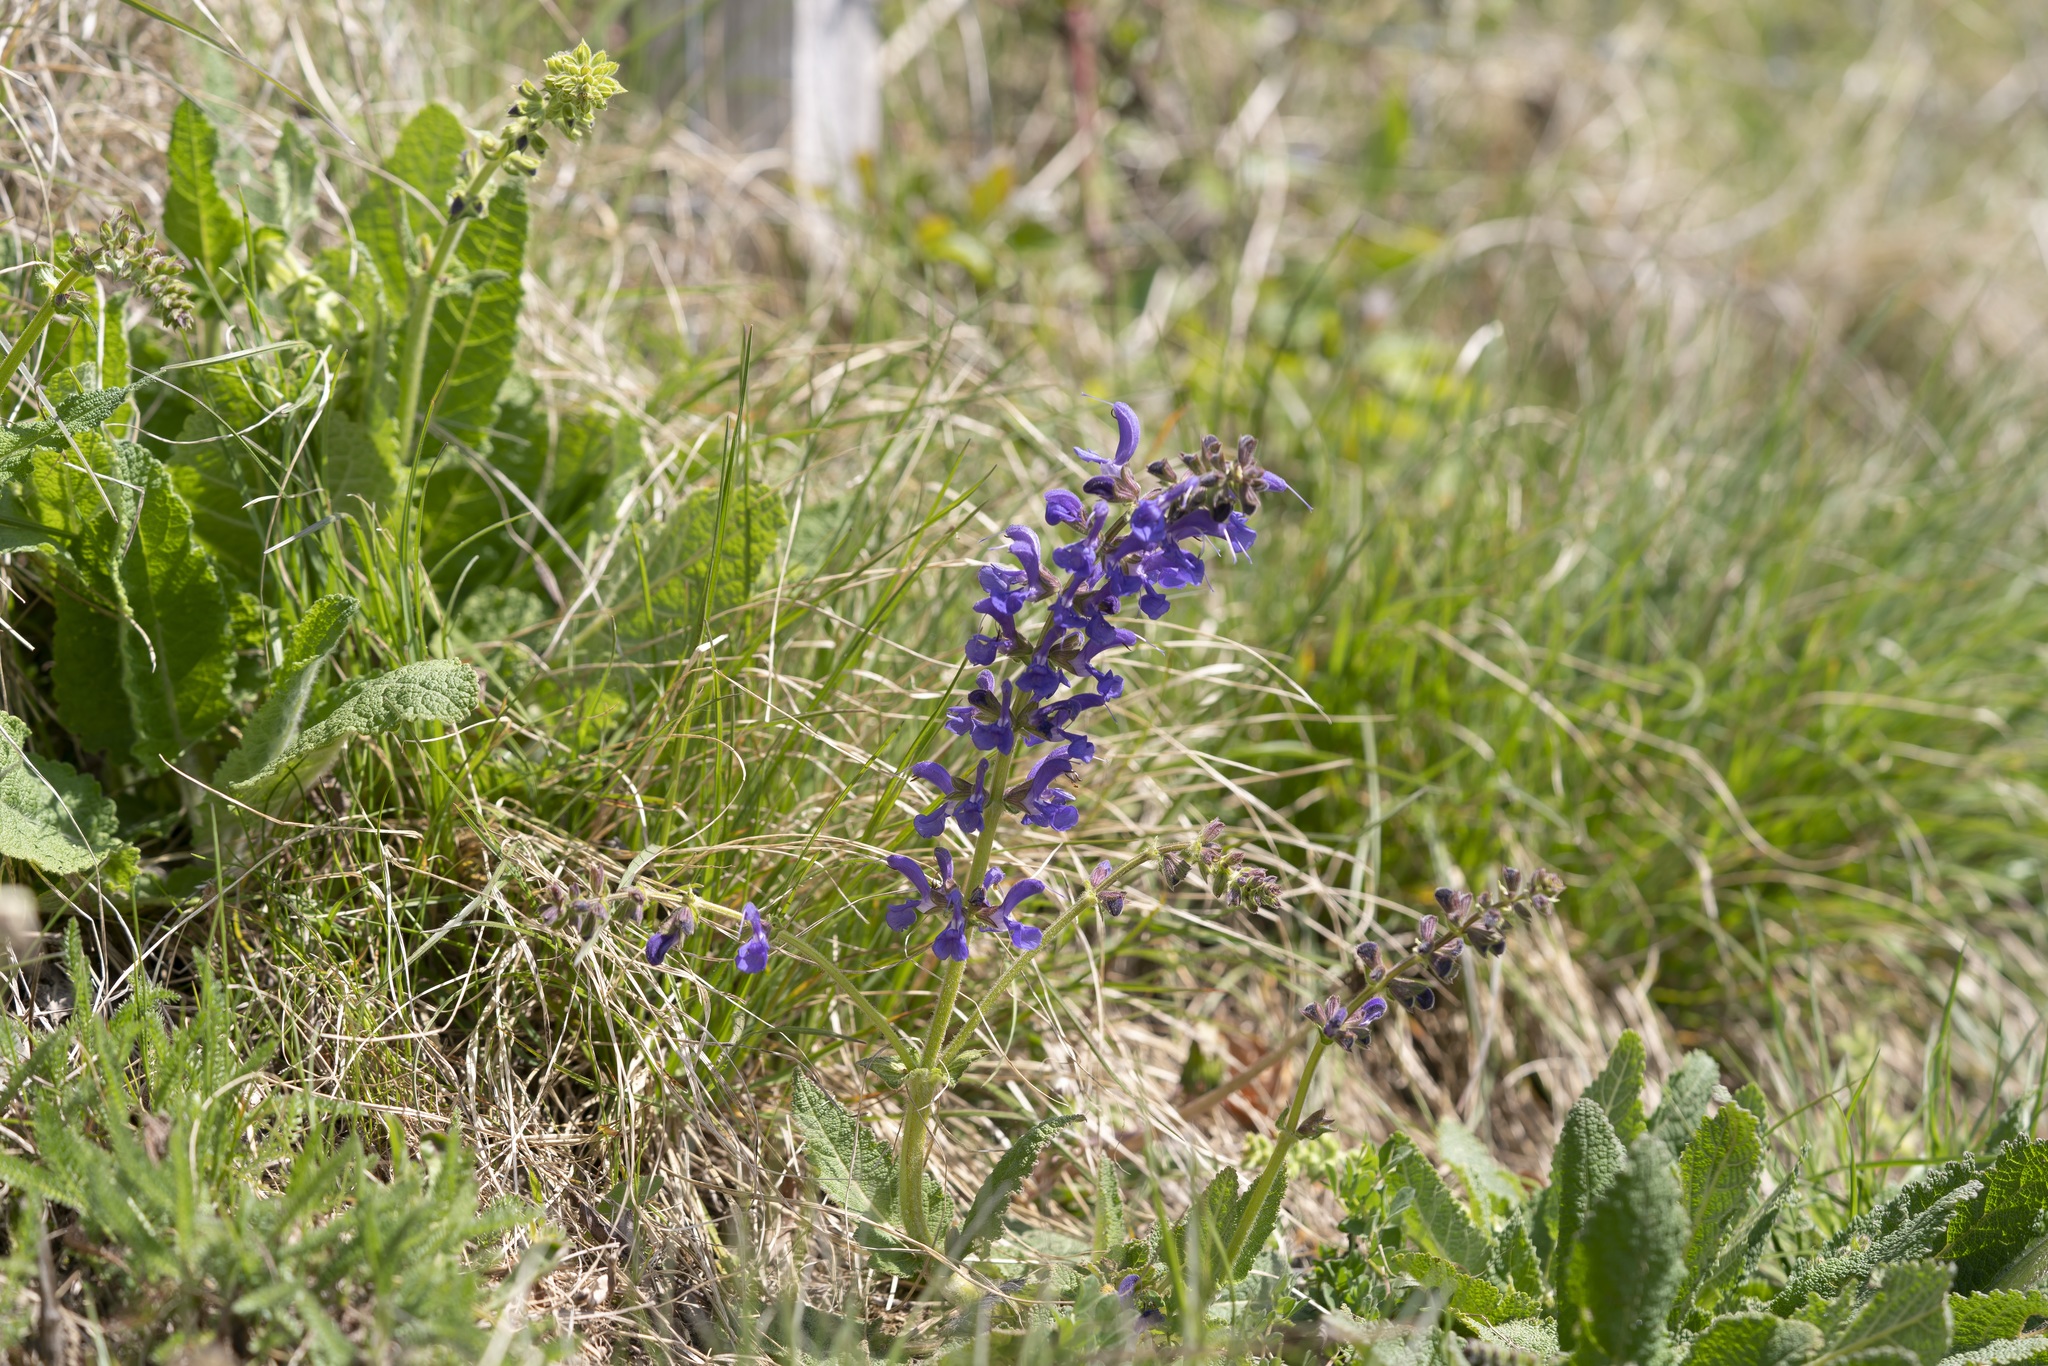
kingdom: Plantae
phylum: Tracheophyta
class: Magnoliopsida
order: Lamiales
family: Lamiaceae
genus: Salvia
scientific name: Salvia pratensis
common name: Meadow sage
